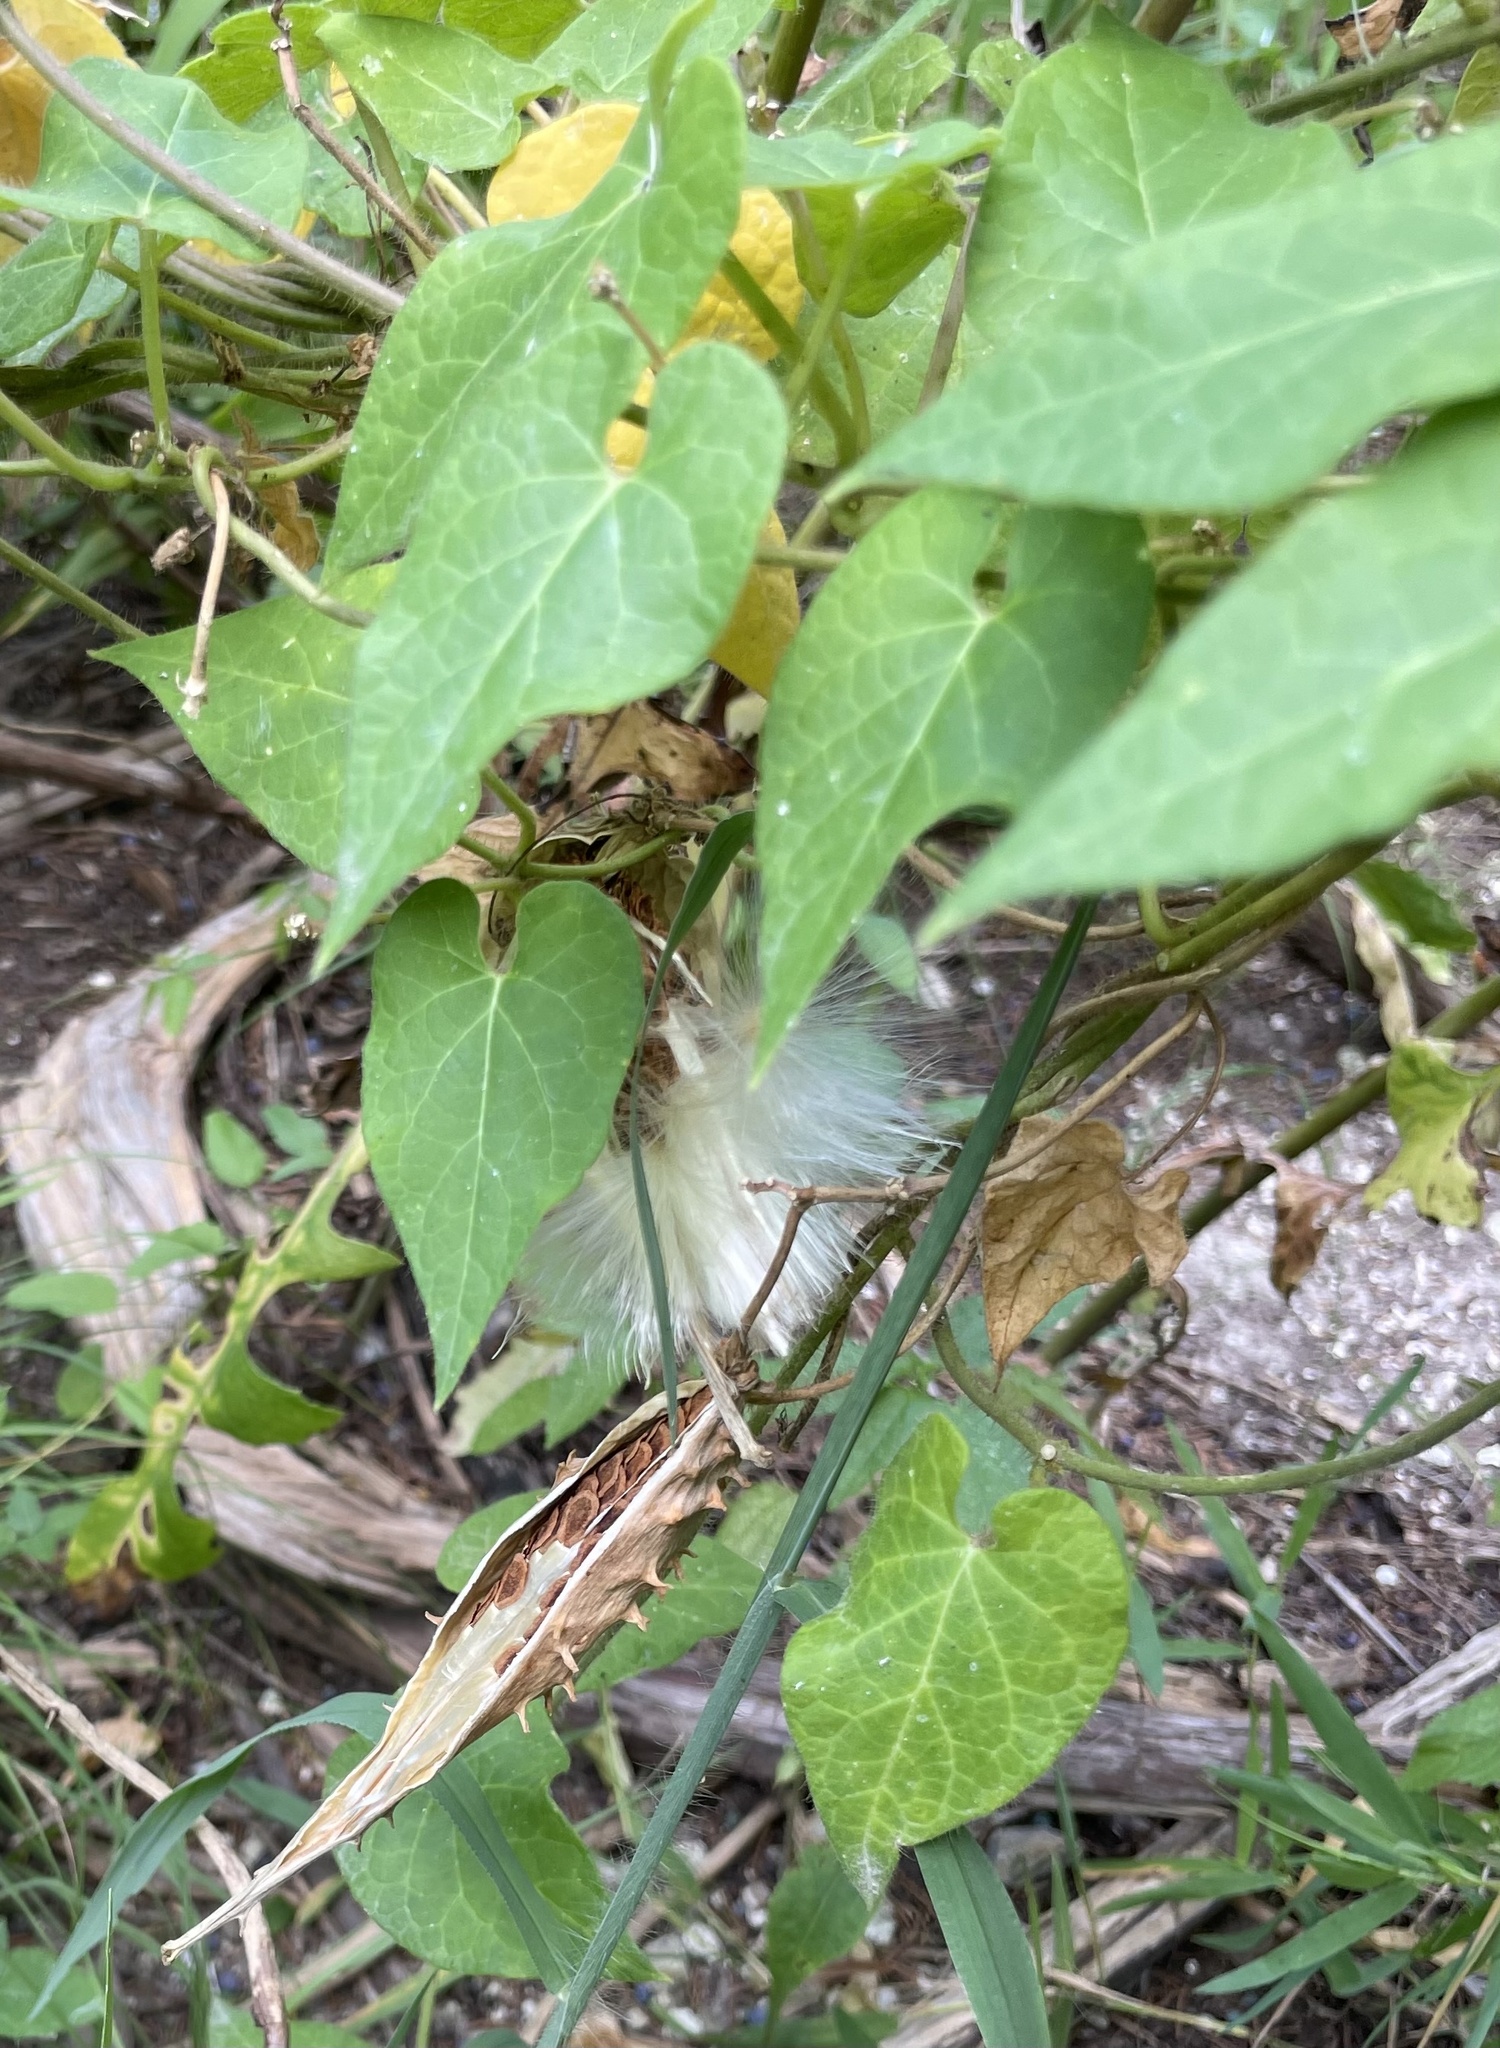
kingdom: Plantae
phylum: Tracheophyta
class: Magnoliopsida
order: Gentianales
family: Apocynaceae
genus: Dictyanthus
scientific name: Dictyanthus reticulatus
